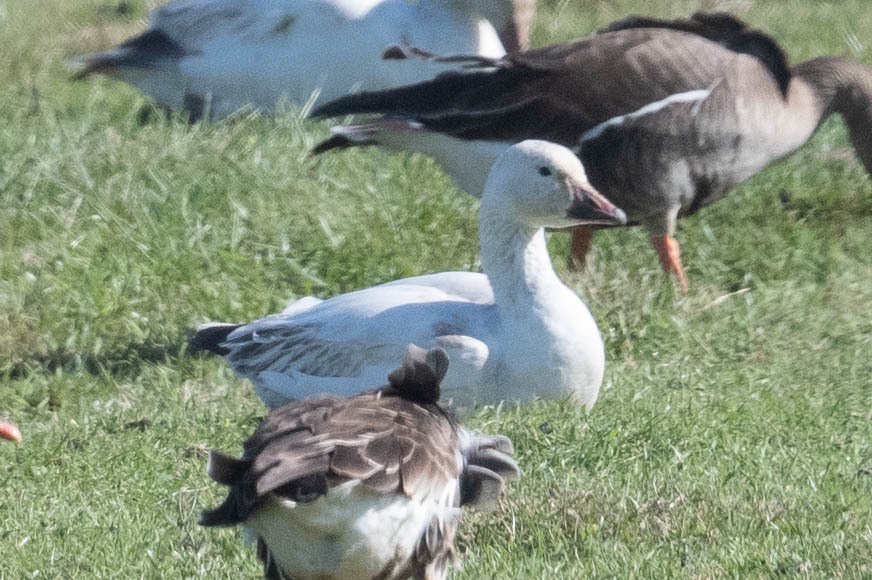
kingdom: Animalia
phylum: Chordata
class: Aves
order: Anseriformes
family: Anatidae
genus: Anser
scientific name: Anser caerulescens
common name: Snow goose
